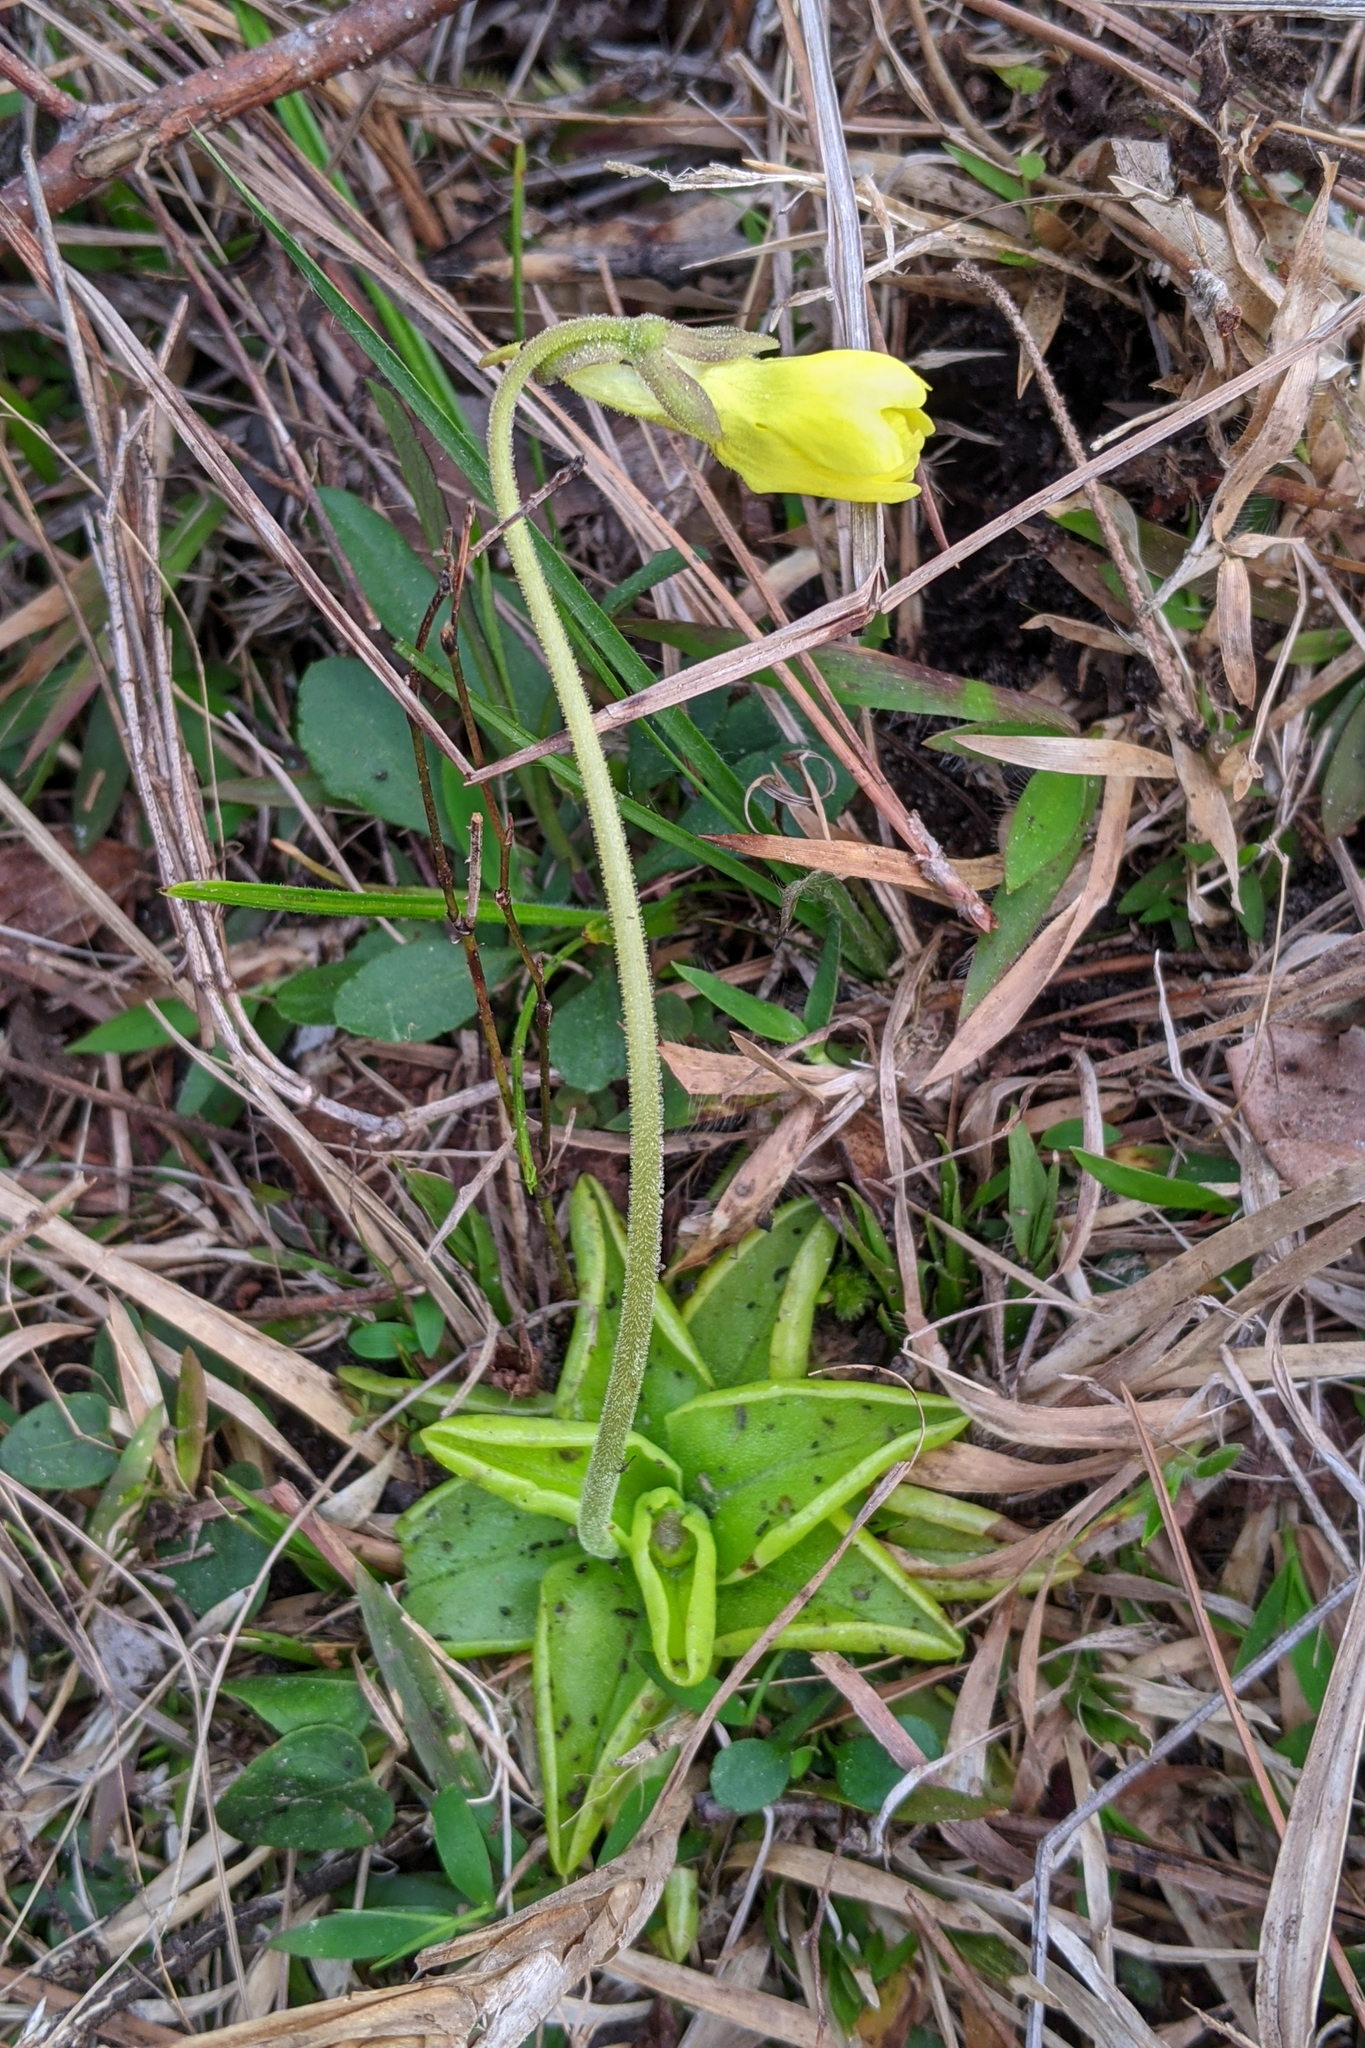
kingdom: Plantae
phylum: Tracheophyta
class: Magnoliopsida
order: Lamiales
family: Lentibulariaceae
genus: Pinguicula
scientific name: Pinguicula lutea
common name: Yellow butterwort
